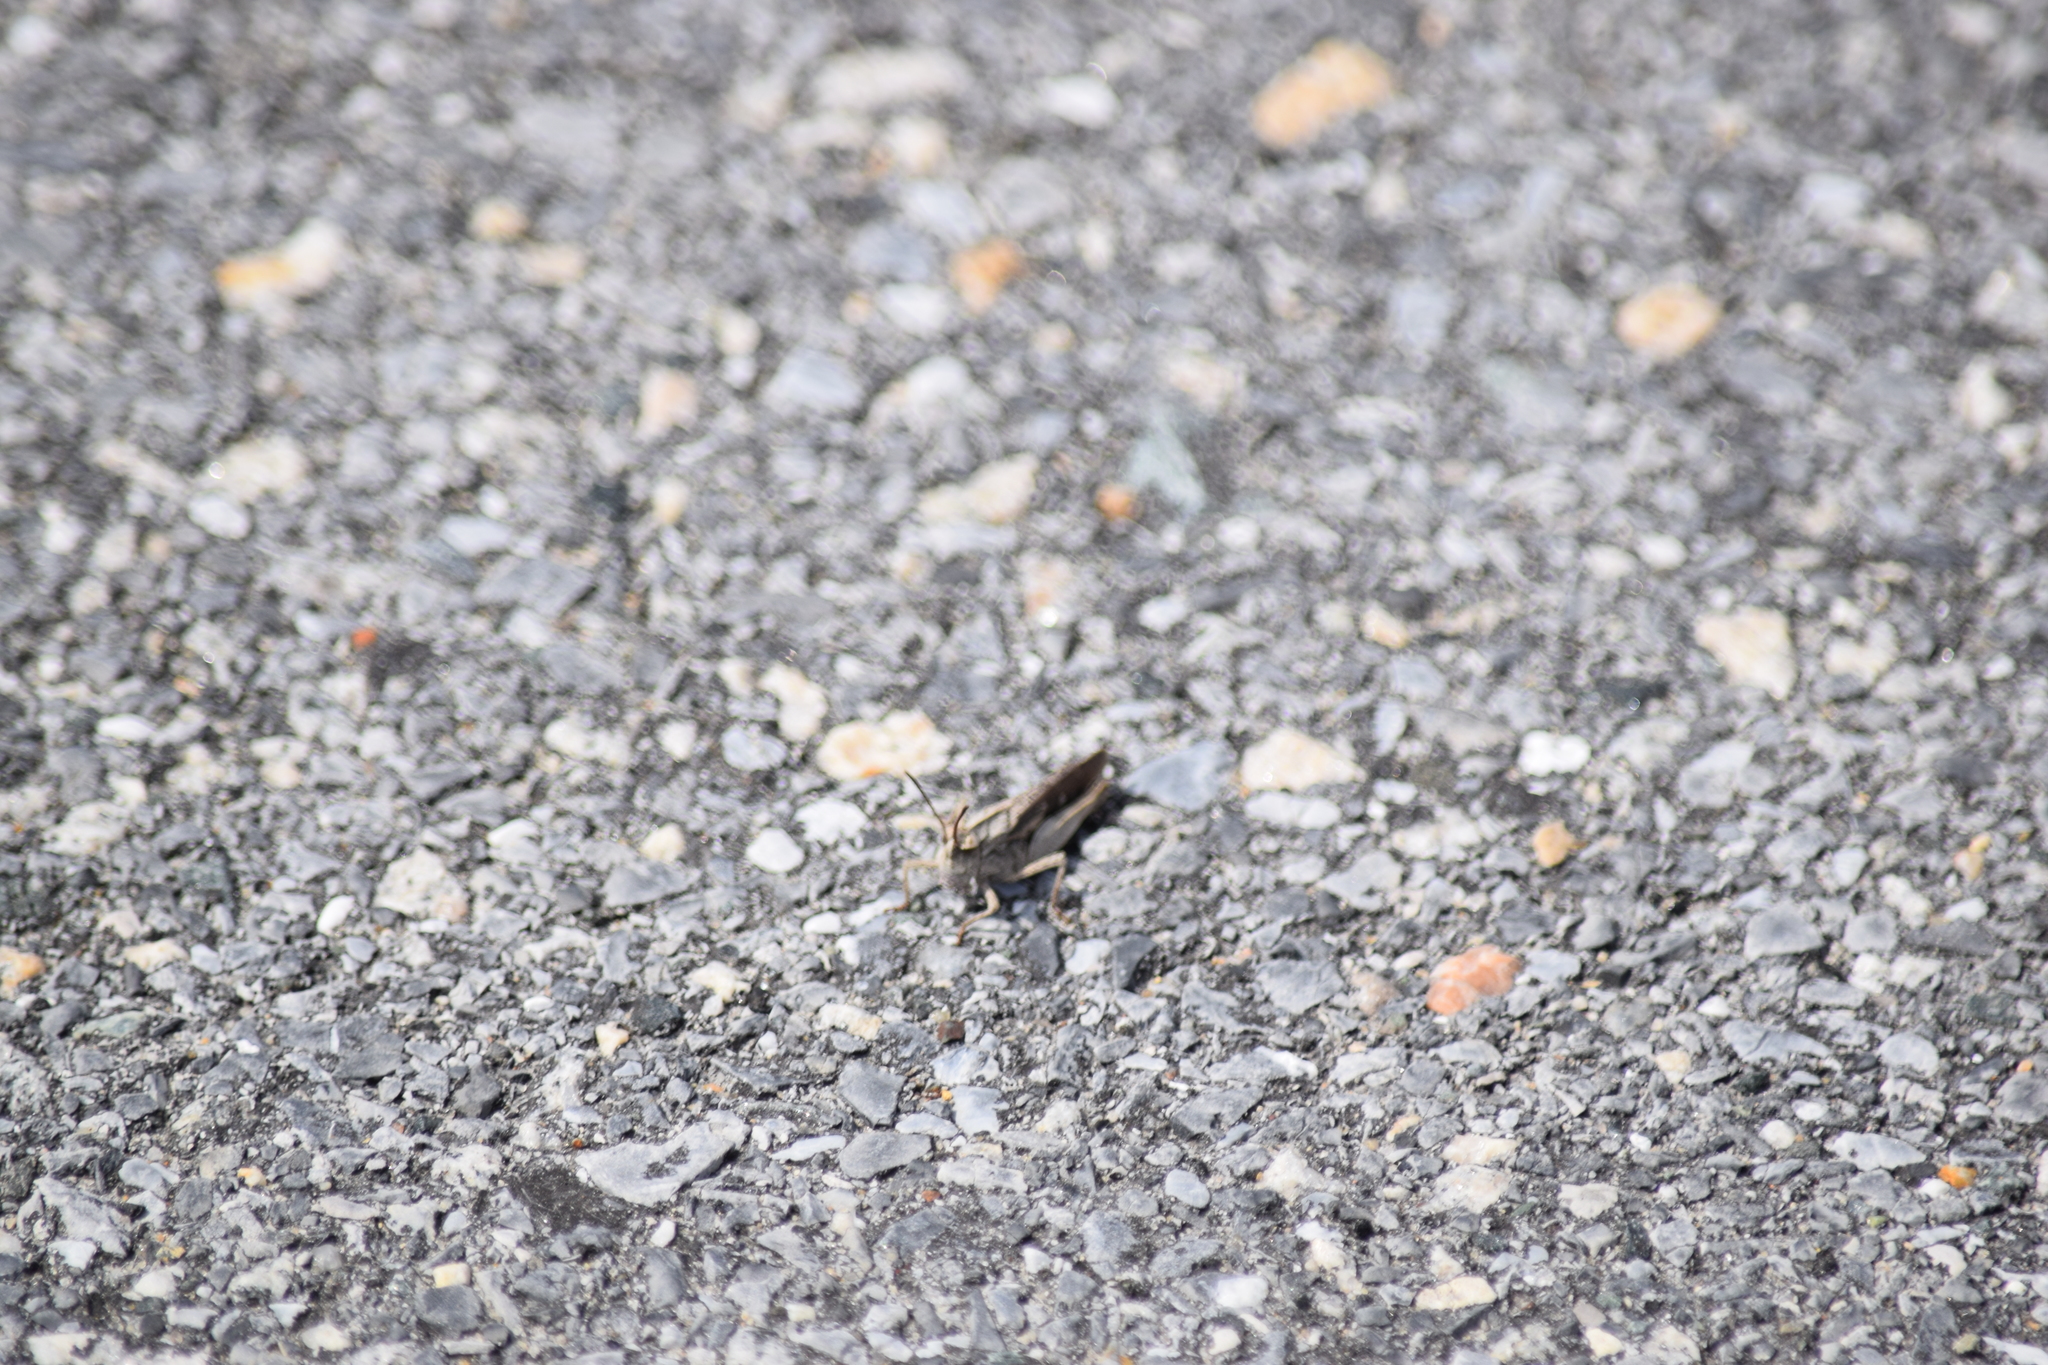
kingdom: Animalia
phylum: Arthropoda
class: Insecta
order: Orthoptera
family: Acrididae
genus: Chortophaga
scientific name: Chortophaga viridifasciata
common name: Green-striped grasshopper
